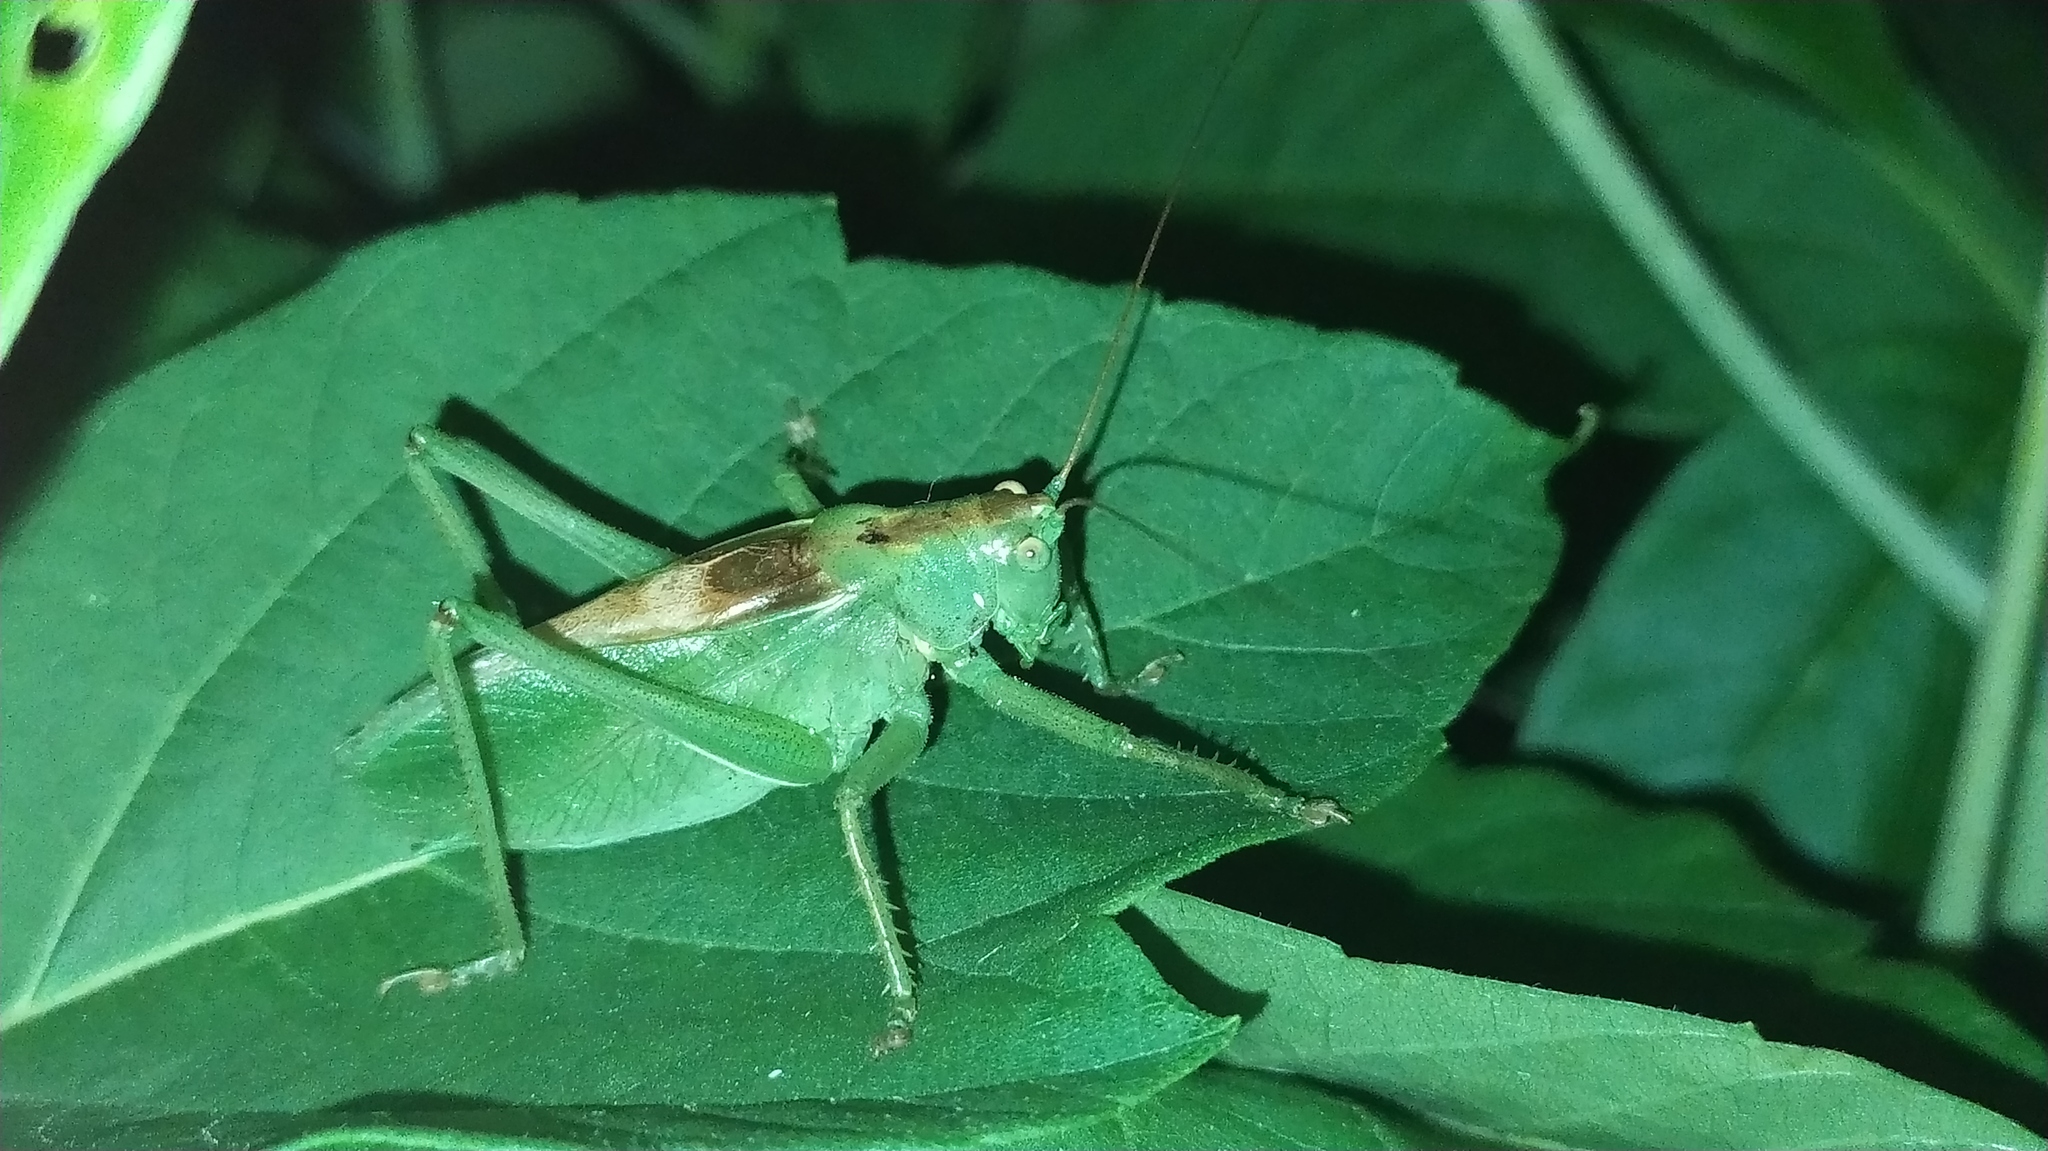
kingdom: Animalia
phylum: Arthropoda
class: Insecta
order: Orthoptera
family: Tettigoniidae
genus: Tettigonia
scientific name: Tettigonia cantans
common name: Upland green bush-cricket
